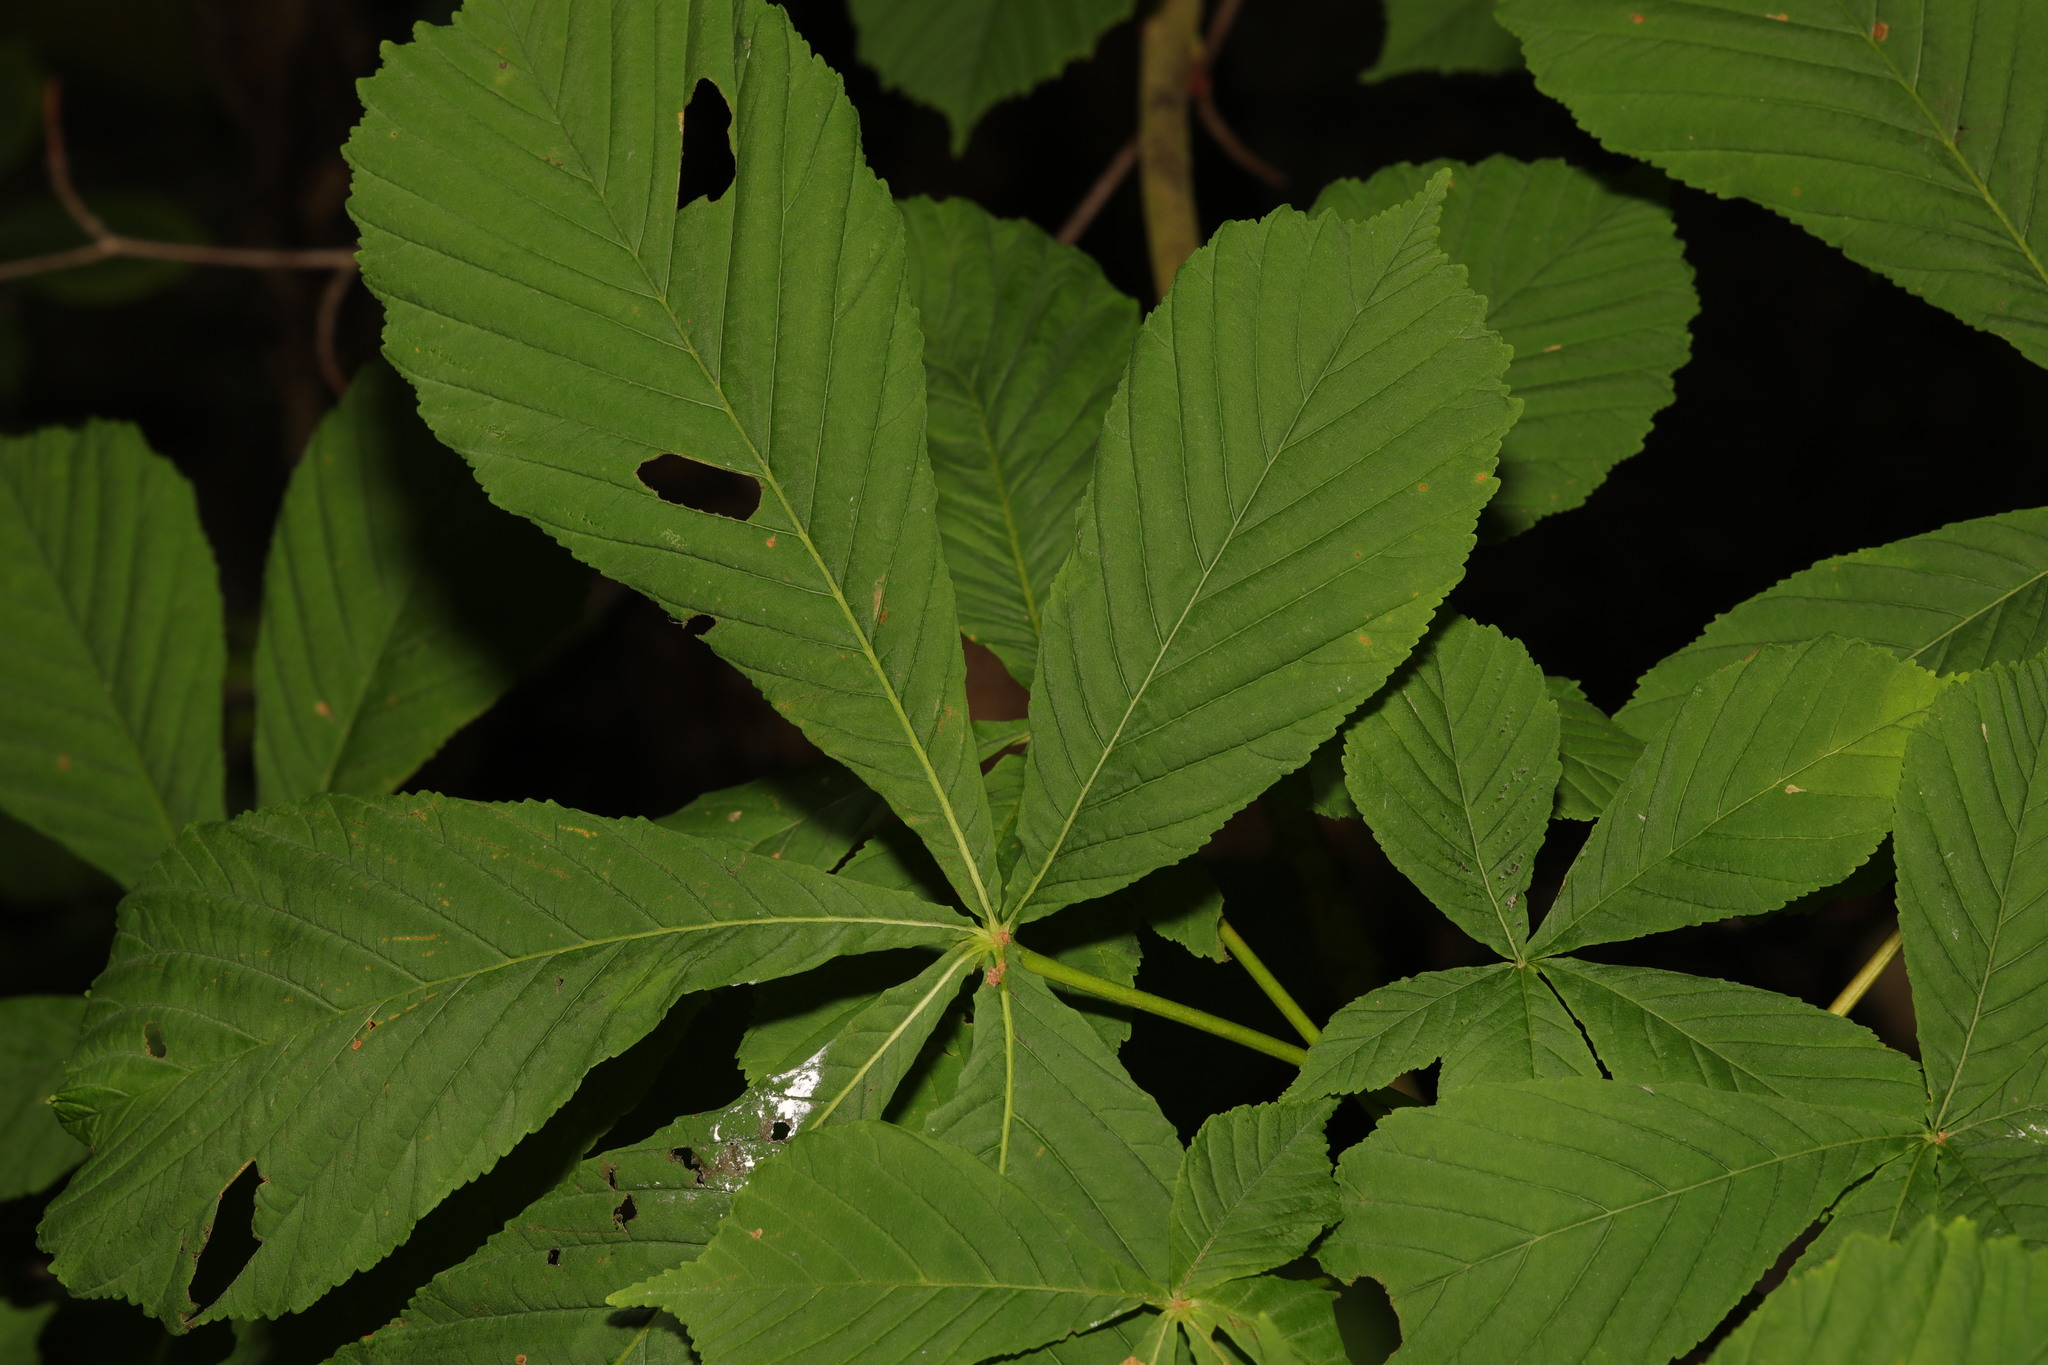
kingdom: Plantae
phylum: Tracheophyta
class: Magnoliopsida
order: Sapindales
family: Sapindaceae
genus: Aesculus
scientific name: Aesculus hippocastanum
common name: Horse-chestnut
